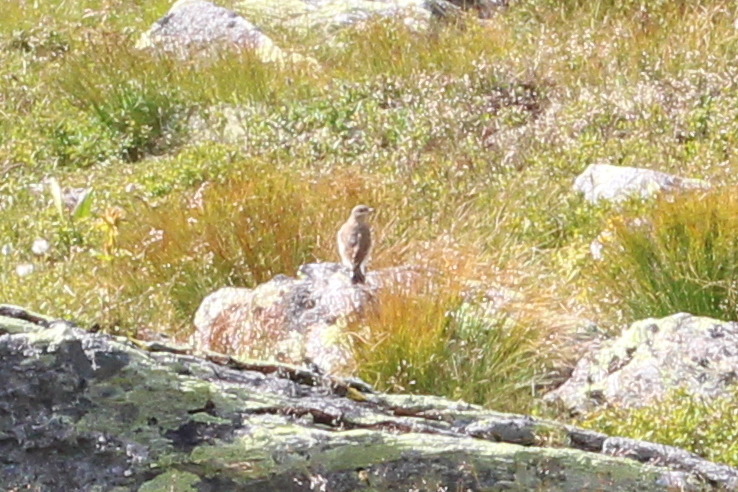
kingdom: Animalia
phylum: Chordata
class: Aves
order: Passeriformes
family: Muscicapidae
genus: Oenanthe
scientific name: Oenanthe oenanthe
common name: Northern wheatear
